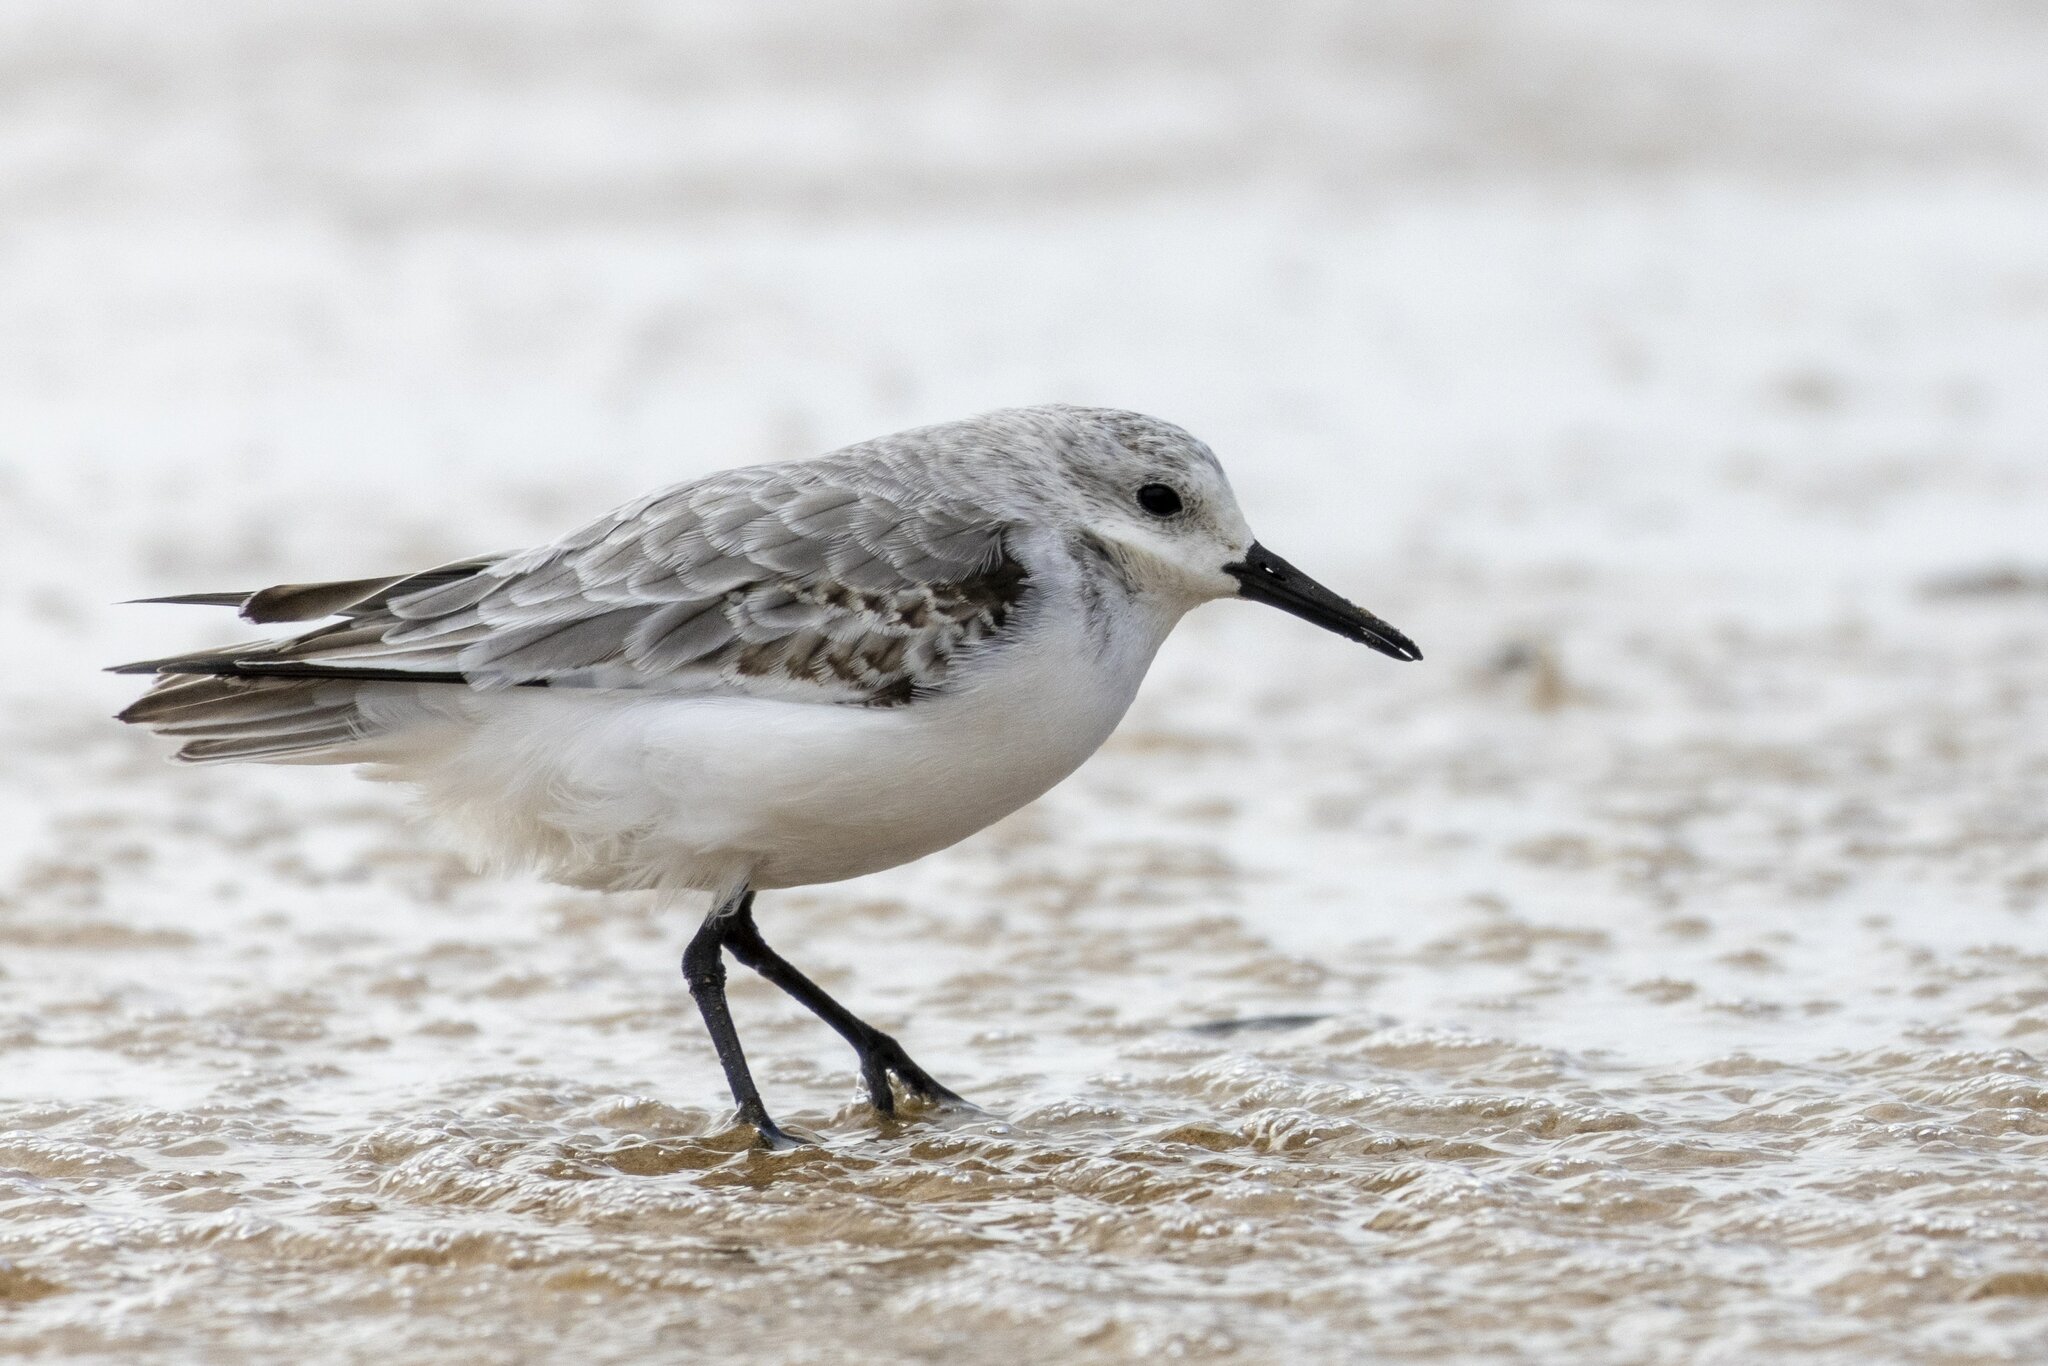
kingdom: Animalia
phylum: Chordata
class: Aves
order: Charadriiformes
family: Scolopacidae
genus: Calidris
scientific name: Calidris alba
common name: Sanderling
